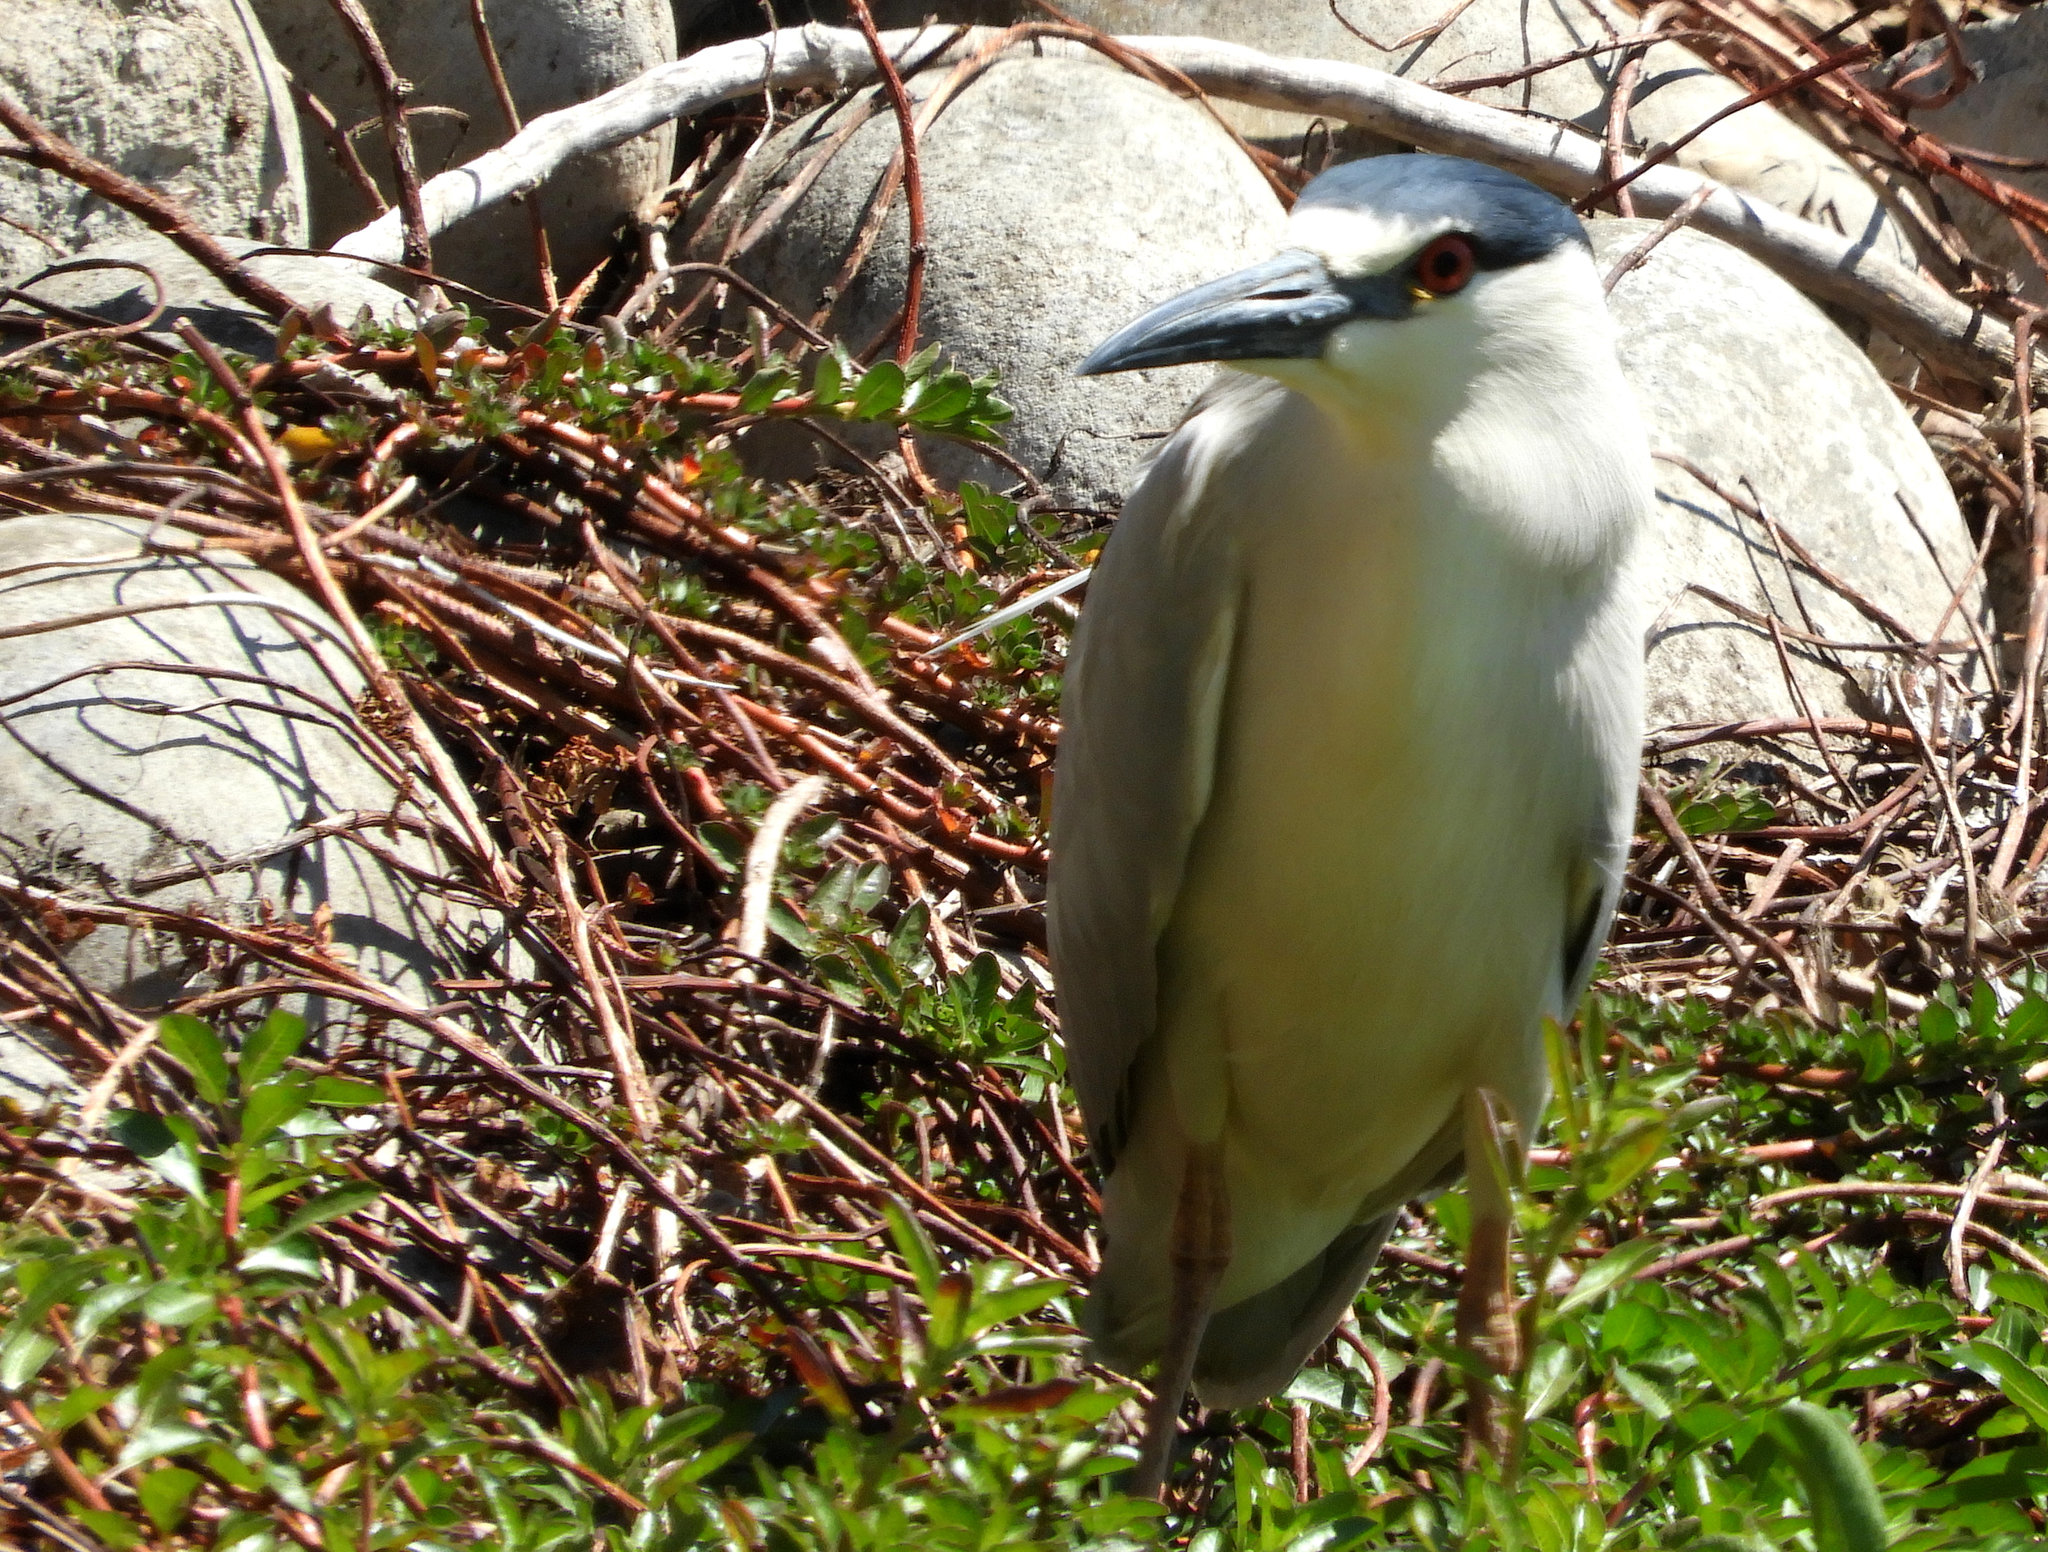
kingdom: Animalia
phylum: Chordata
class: Aves
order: Pelecaniformes
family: Ardeidae
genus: Nycticorax
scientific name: Nycticorax nycticorax
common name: Black-crowned night heron
